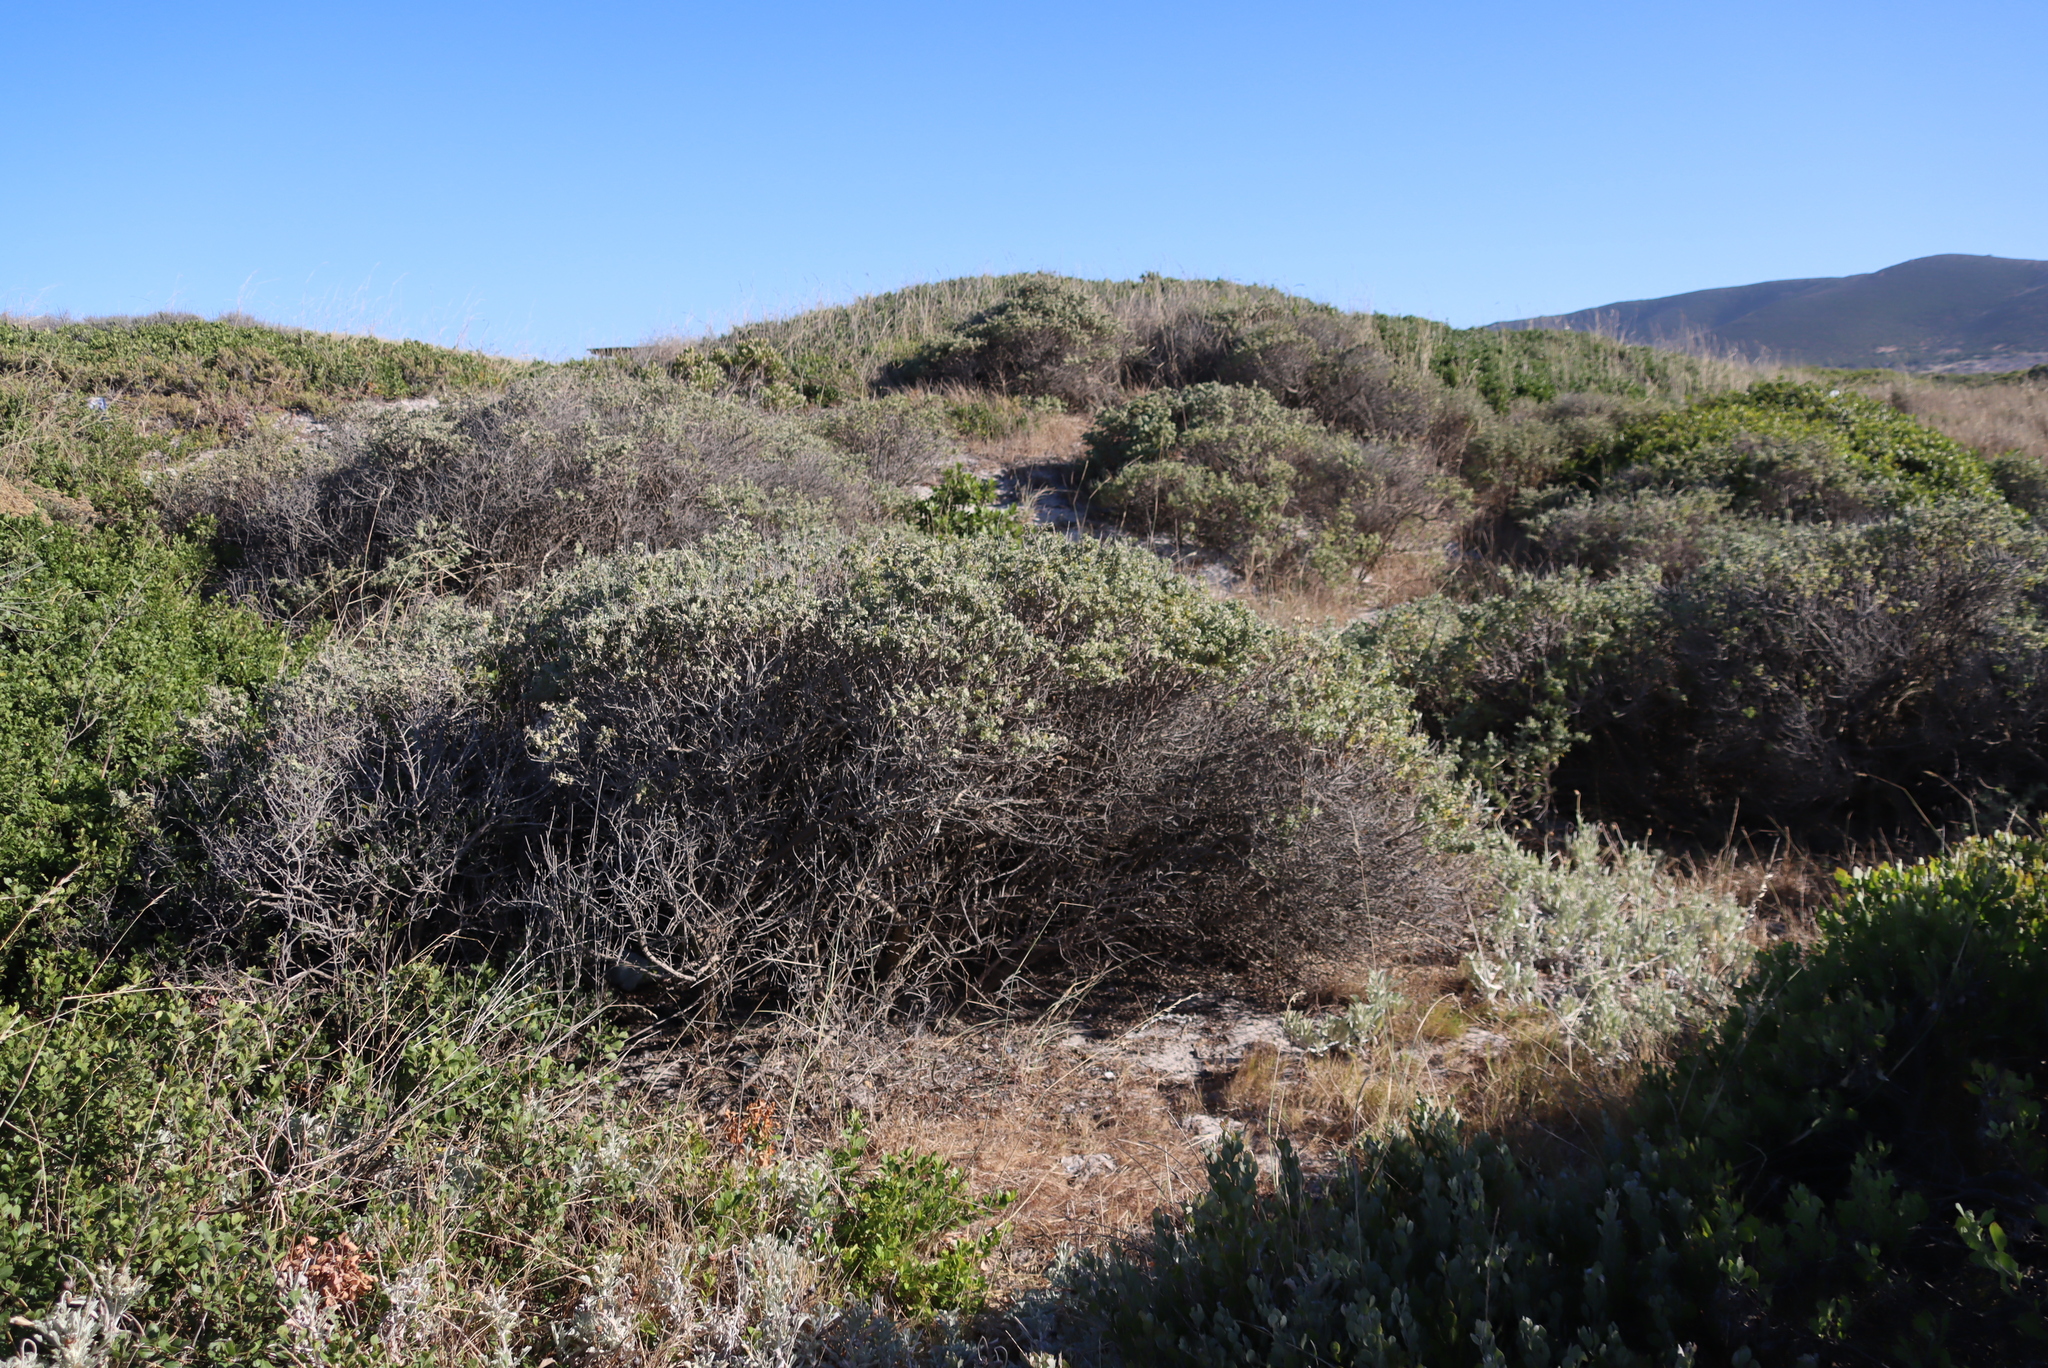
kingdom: Plantae
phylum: Tracheophyta
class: Magnoliopsida
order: Lamiales
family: Lamiaceae
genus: Salvia
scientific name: Salvia aurea
